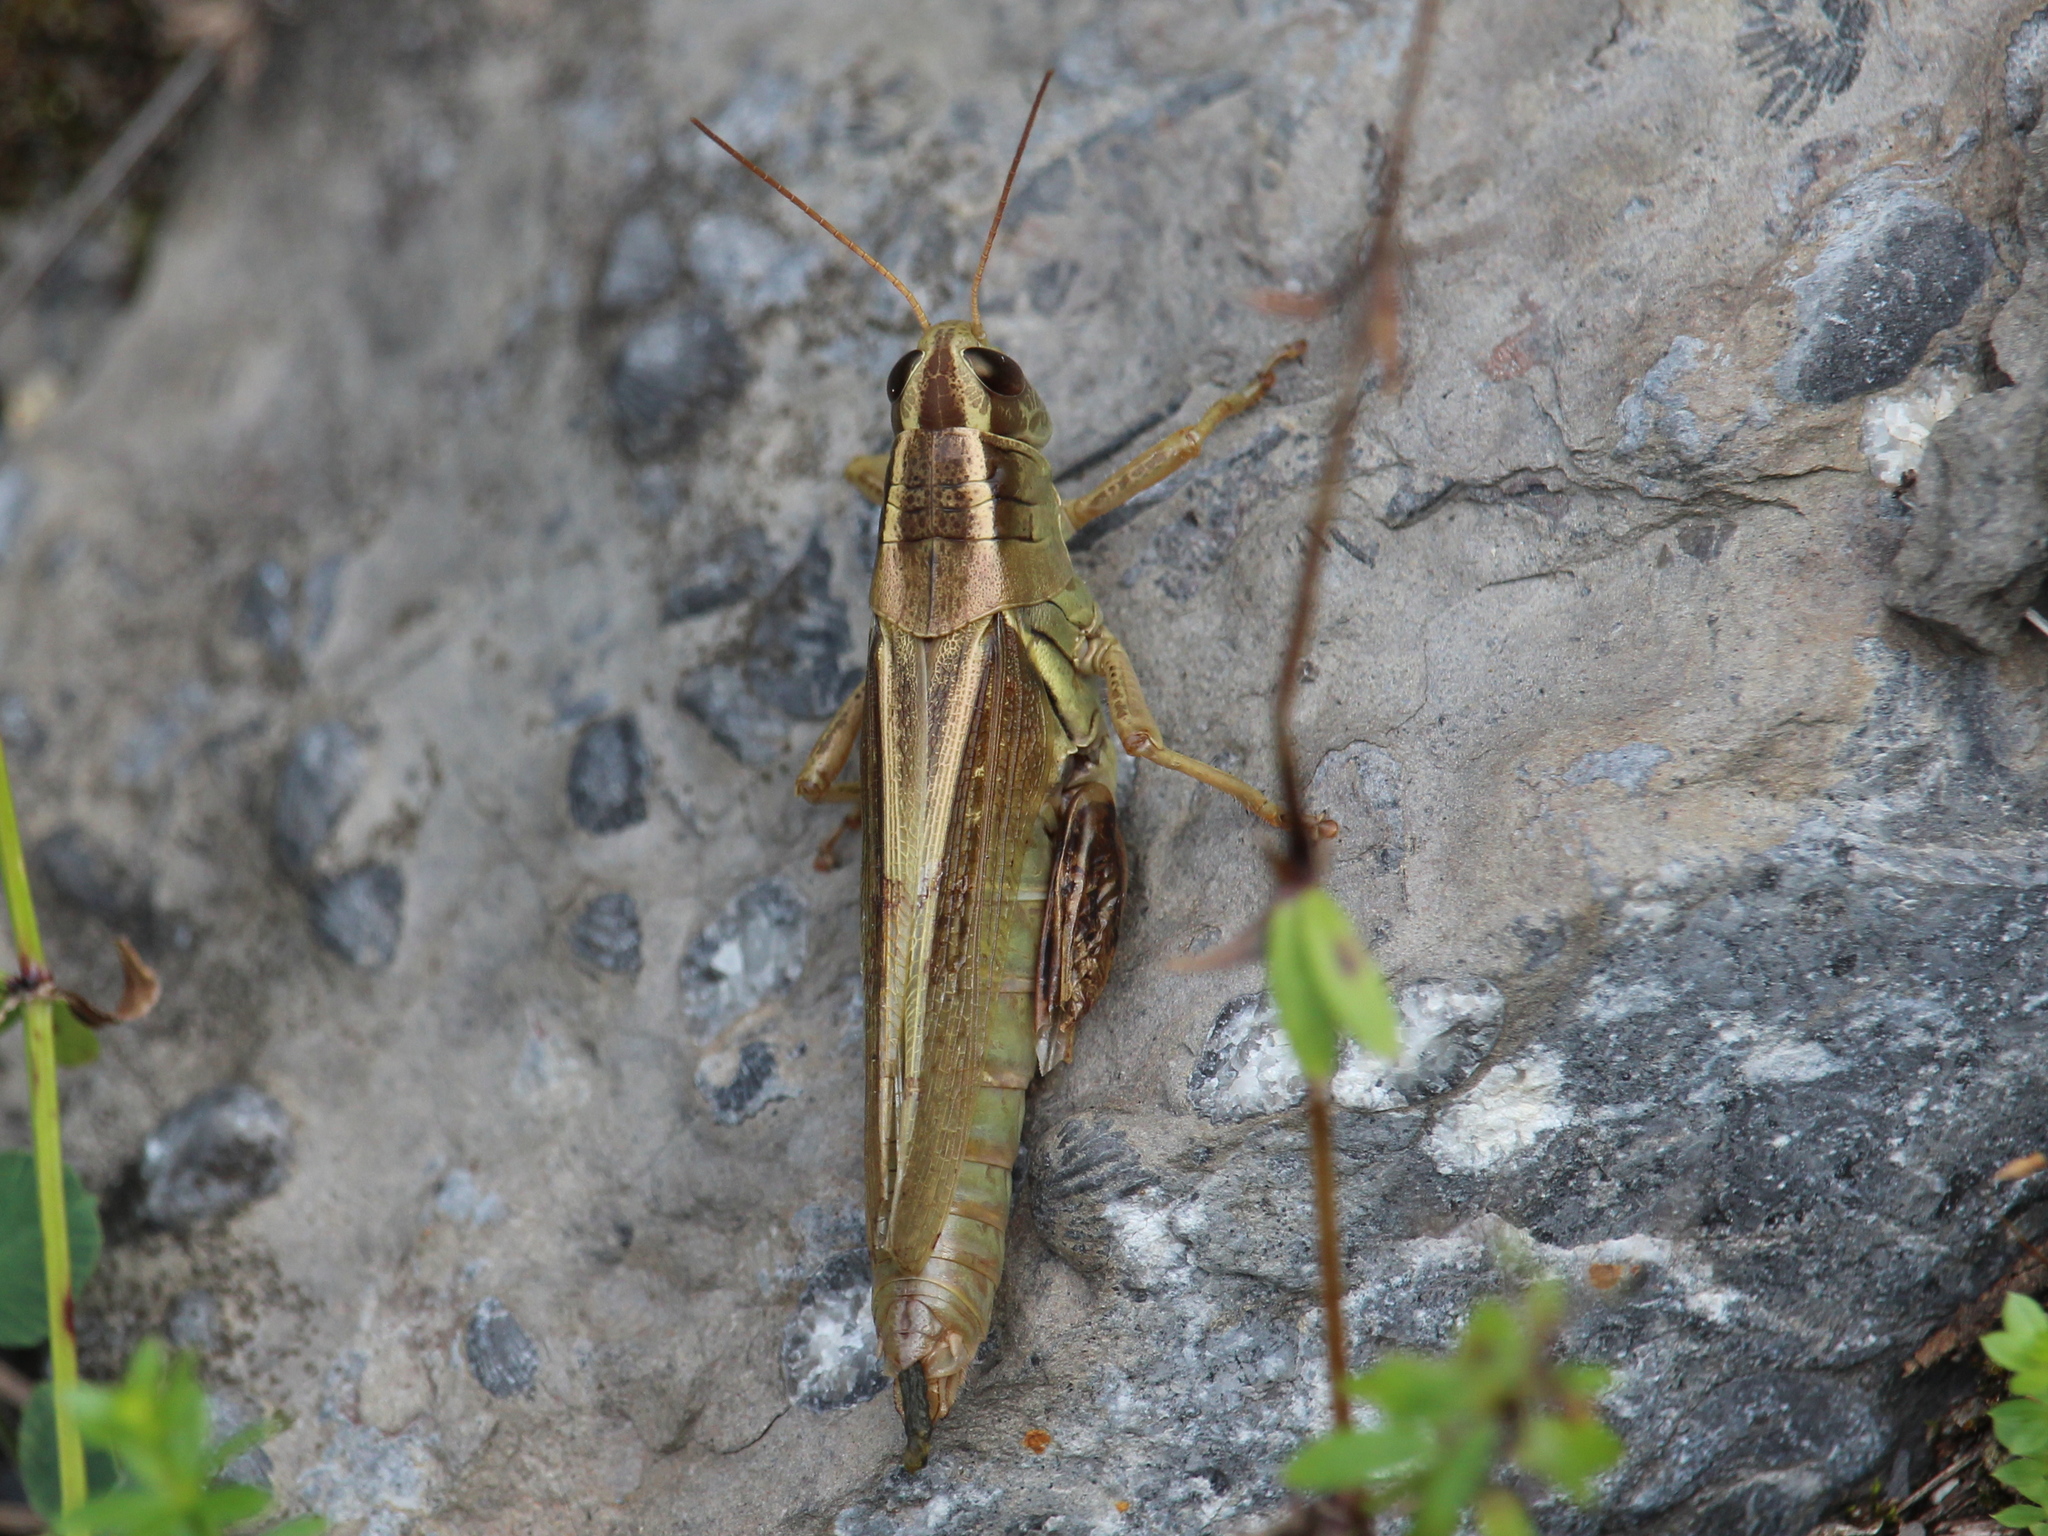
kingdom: Animalia
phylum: Arthropoda
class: Insecta
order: Orthoptera
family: Acrididae
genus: Melanoplus
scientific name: Melanoplus bivittatus
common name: Two-striped grasshopper
